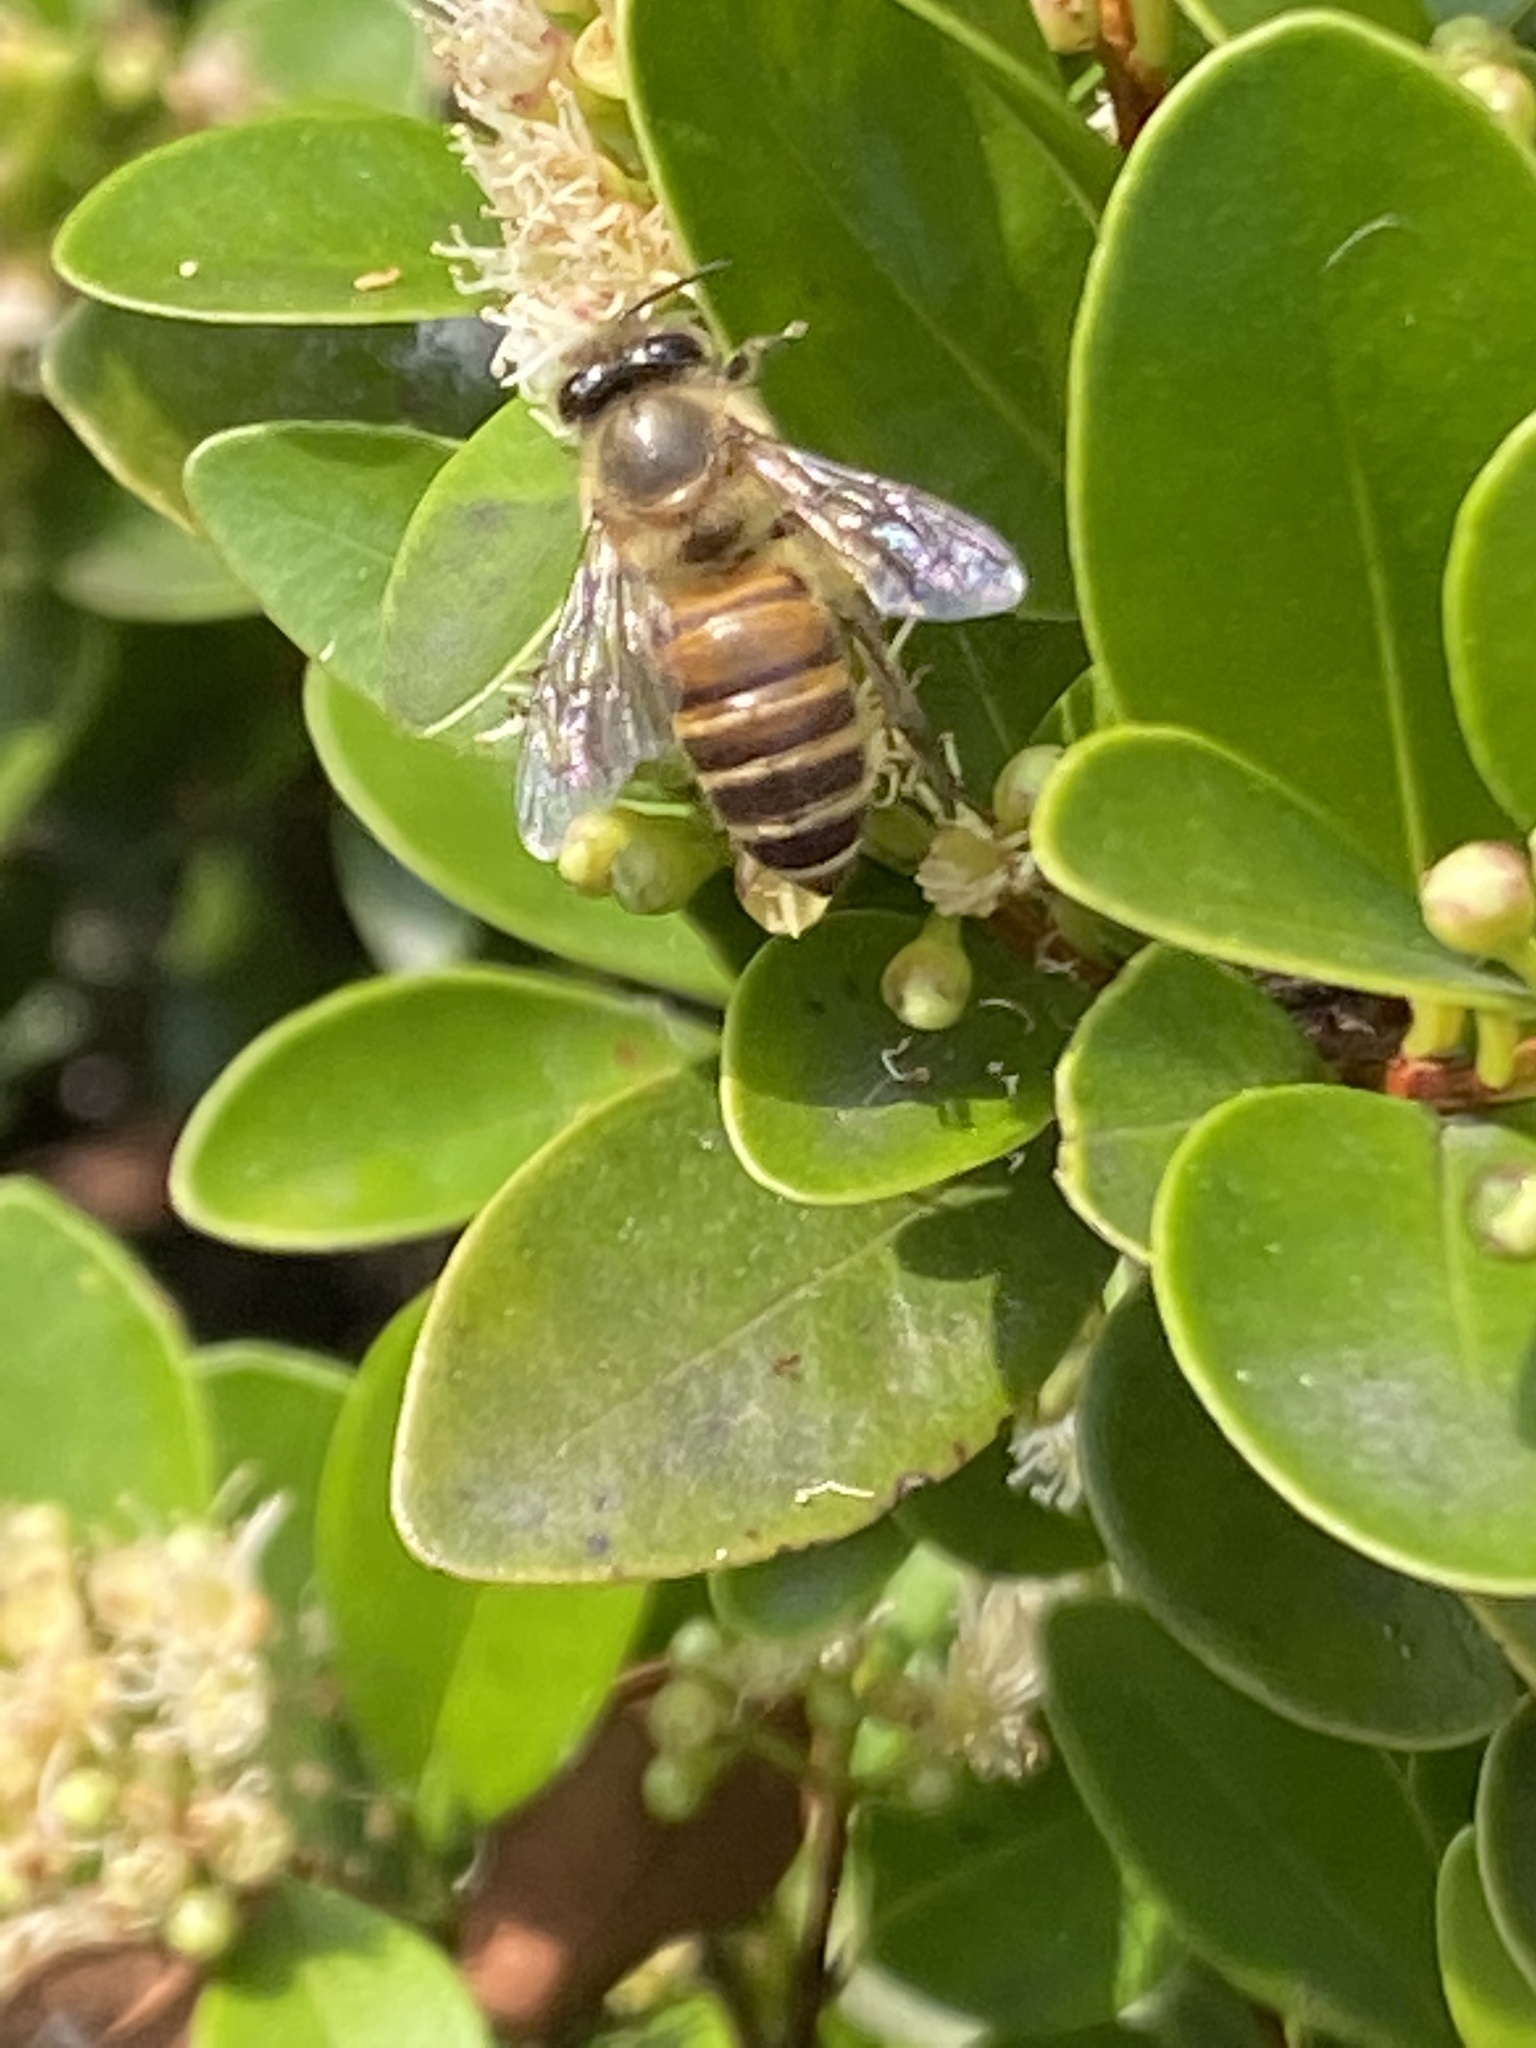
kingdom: Animalia
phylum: Arthropoda
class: Insecta
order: Hymenoptera
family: Apidae
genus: Apis
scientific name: Apis cerana
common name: Honey bee
